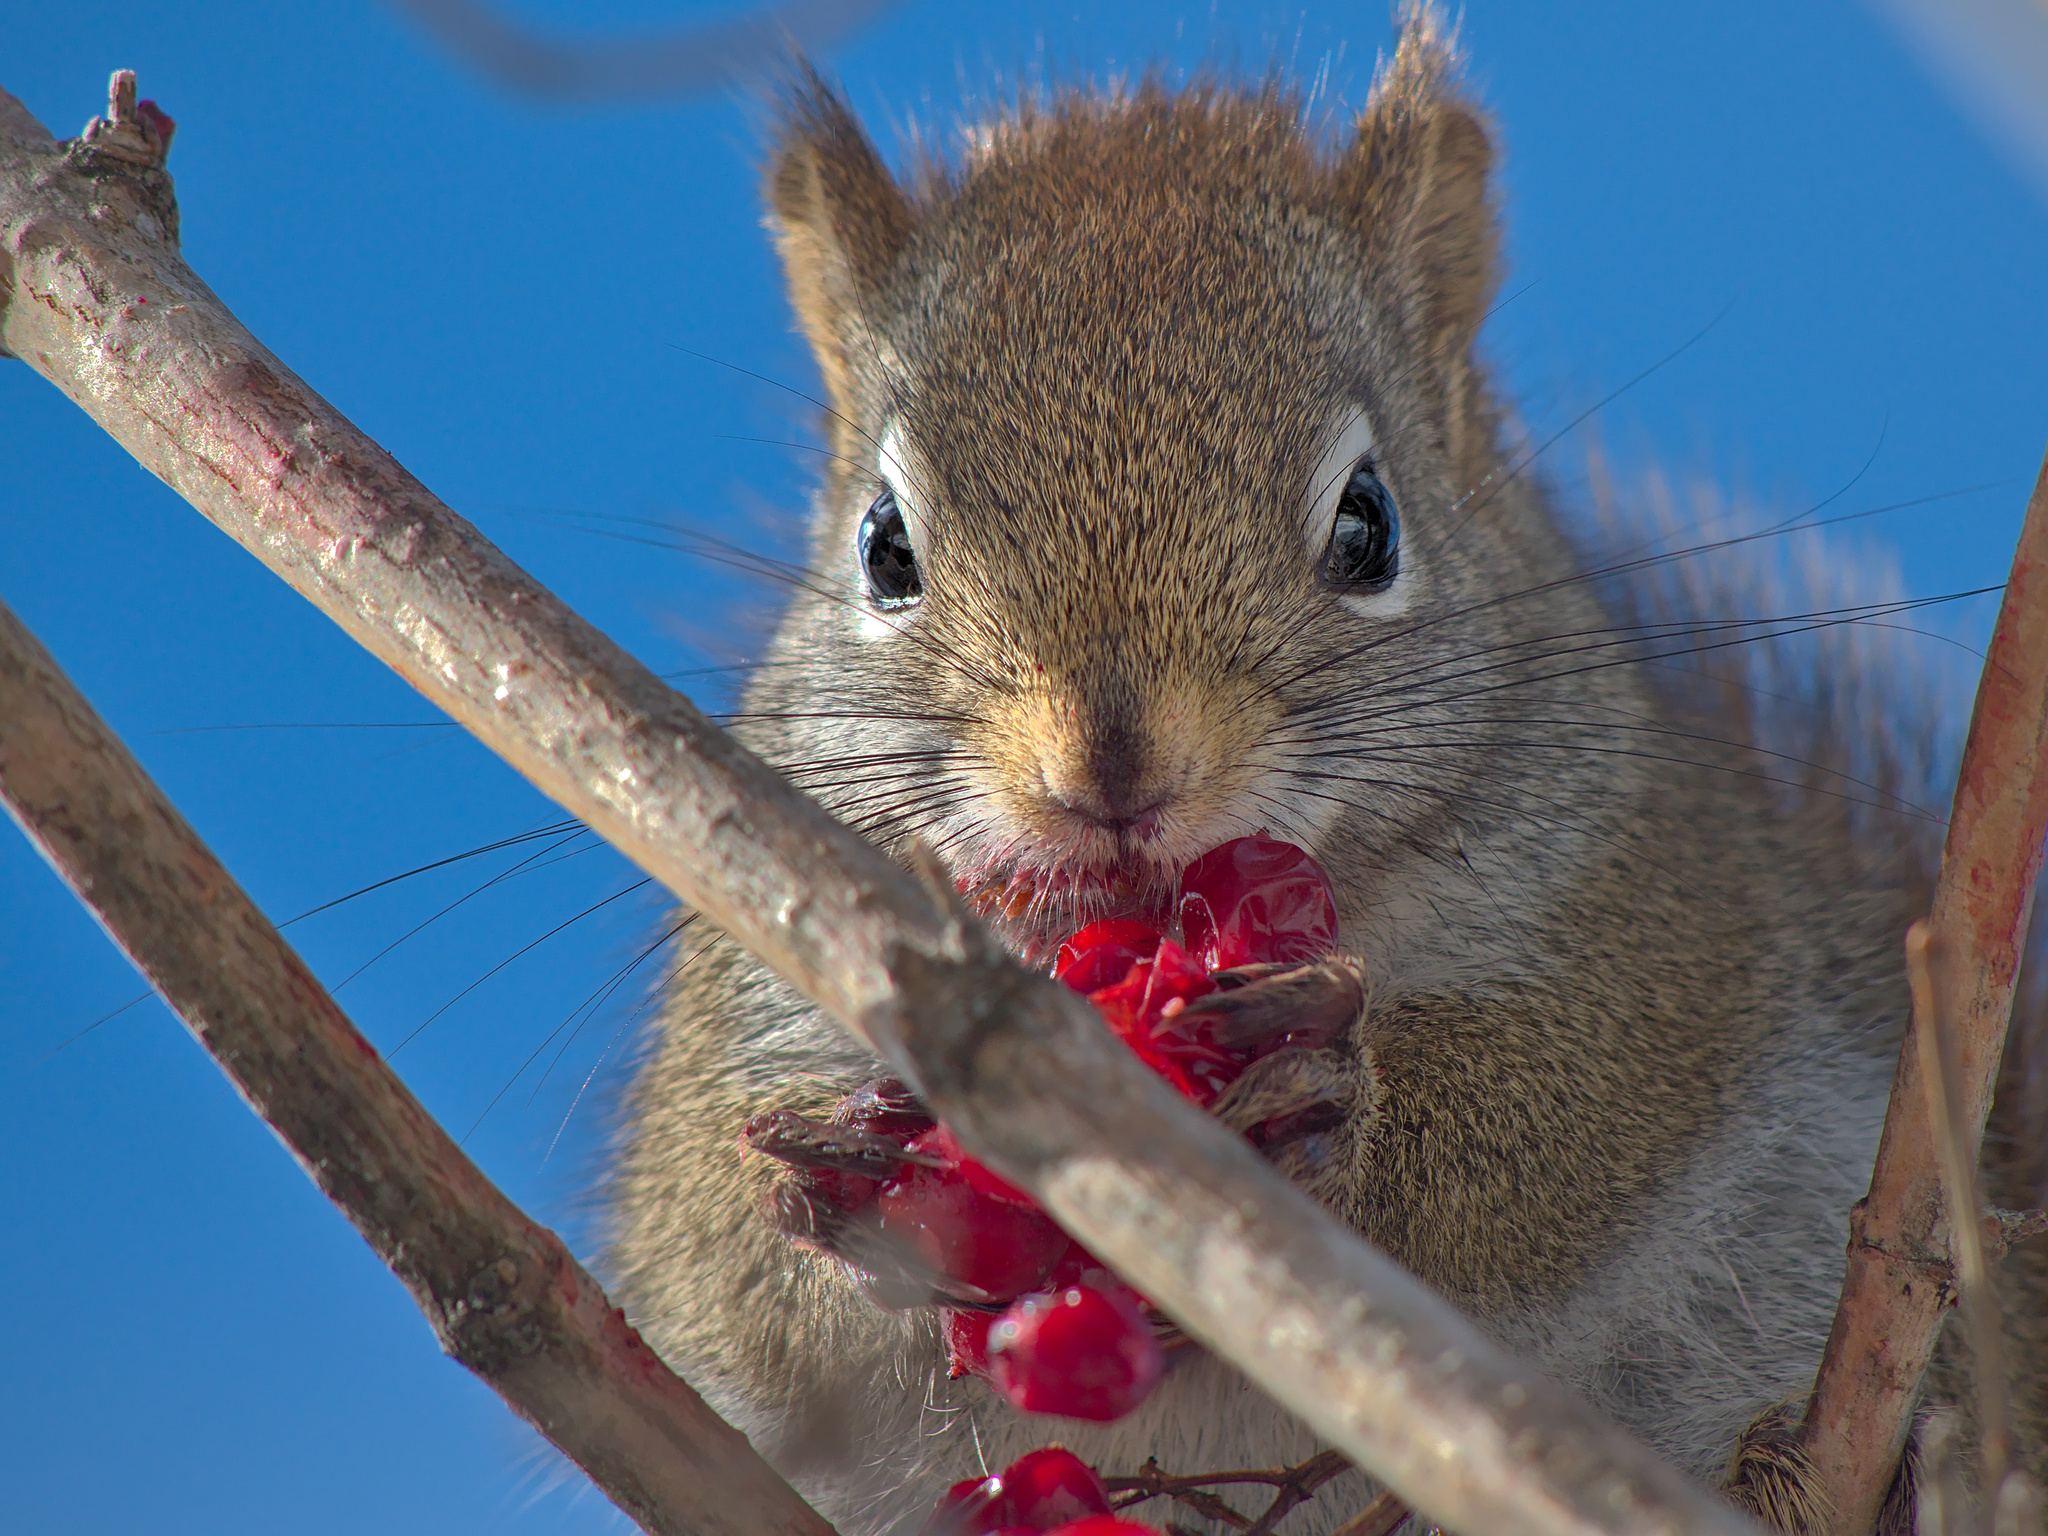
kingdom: Animalia
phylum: Chordata
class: Mammalia
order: Rodentia
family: Sciuridae
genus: Tamiasciurus
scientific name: Tamiasciurus hudsonicus
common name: Red squirrel
